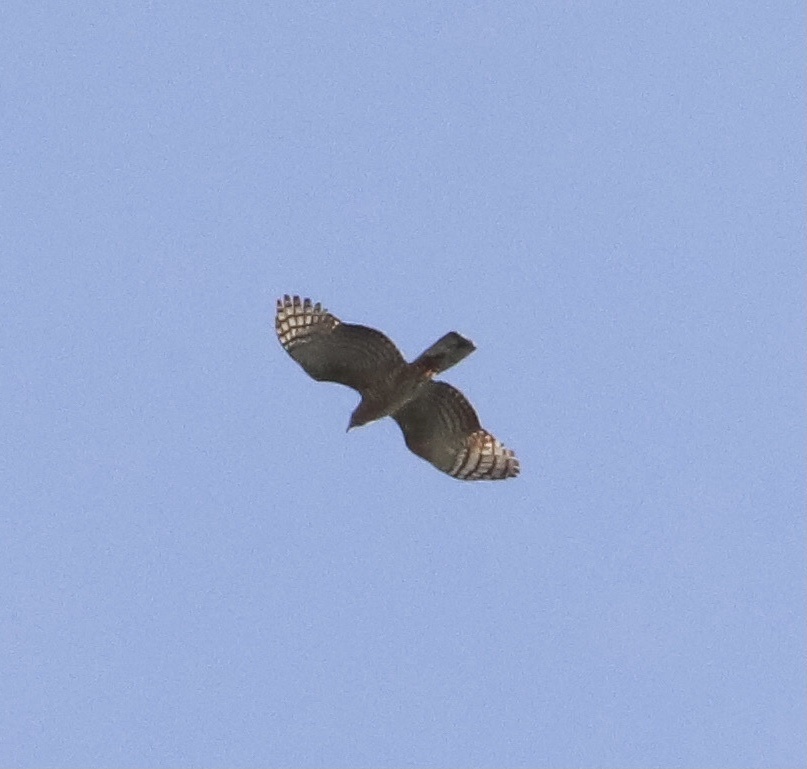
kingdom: Animalia
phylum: Chordata
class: Aves
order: Accipitriformes
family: Accipitridae
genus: Chondrohierax
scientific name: Chondrohierax uncinatus
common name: Hook-billed kite
